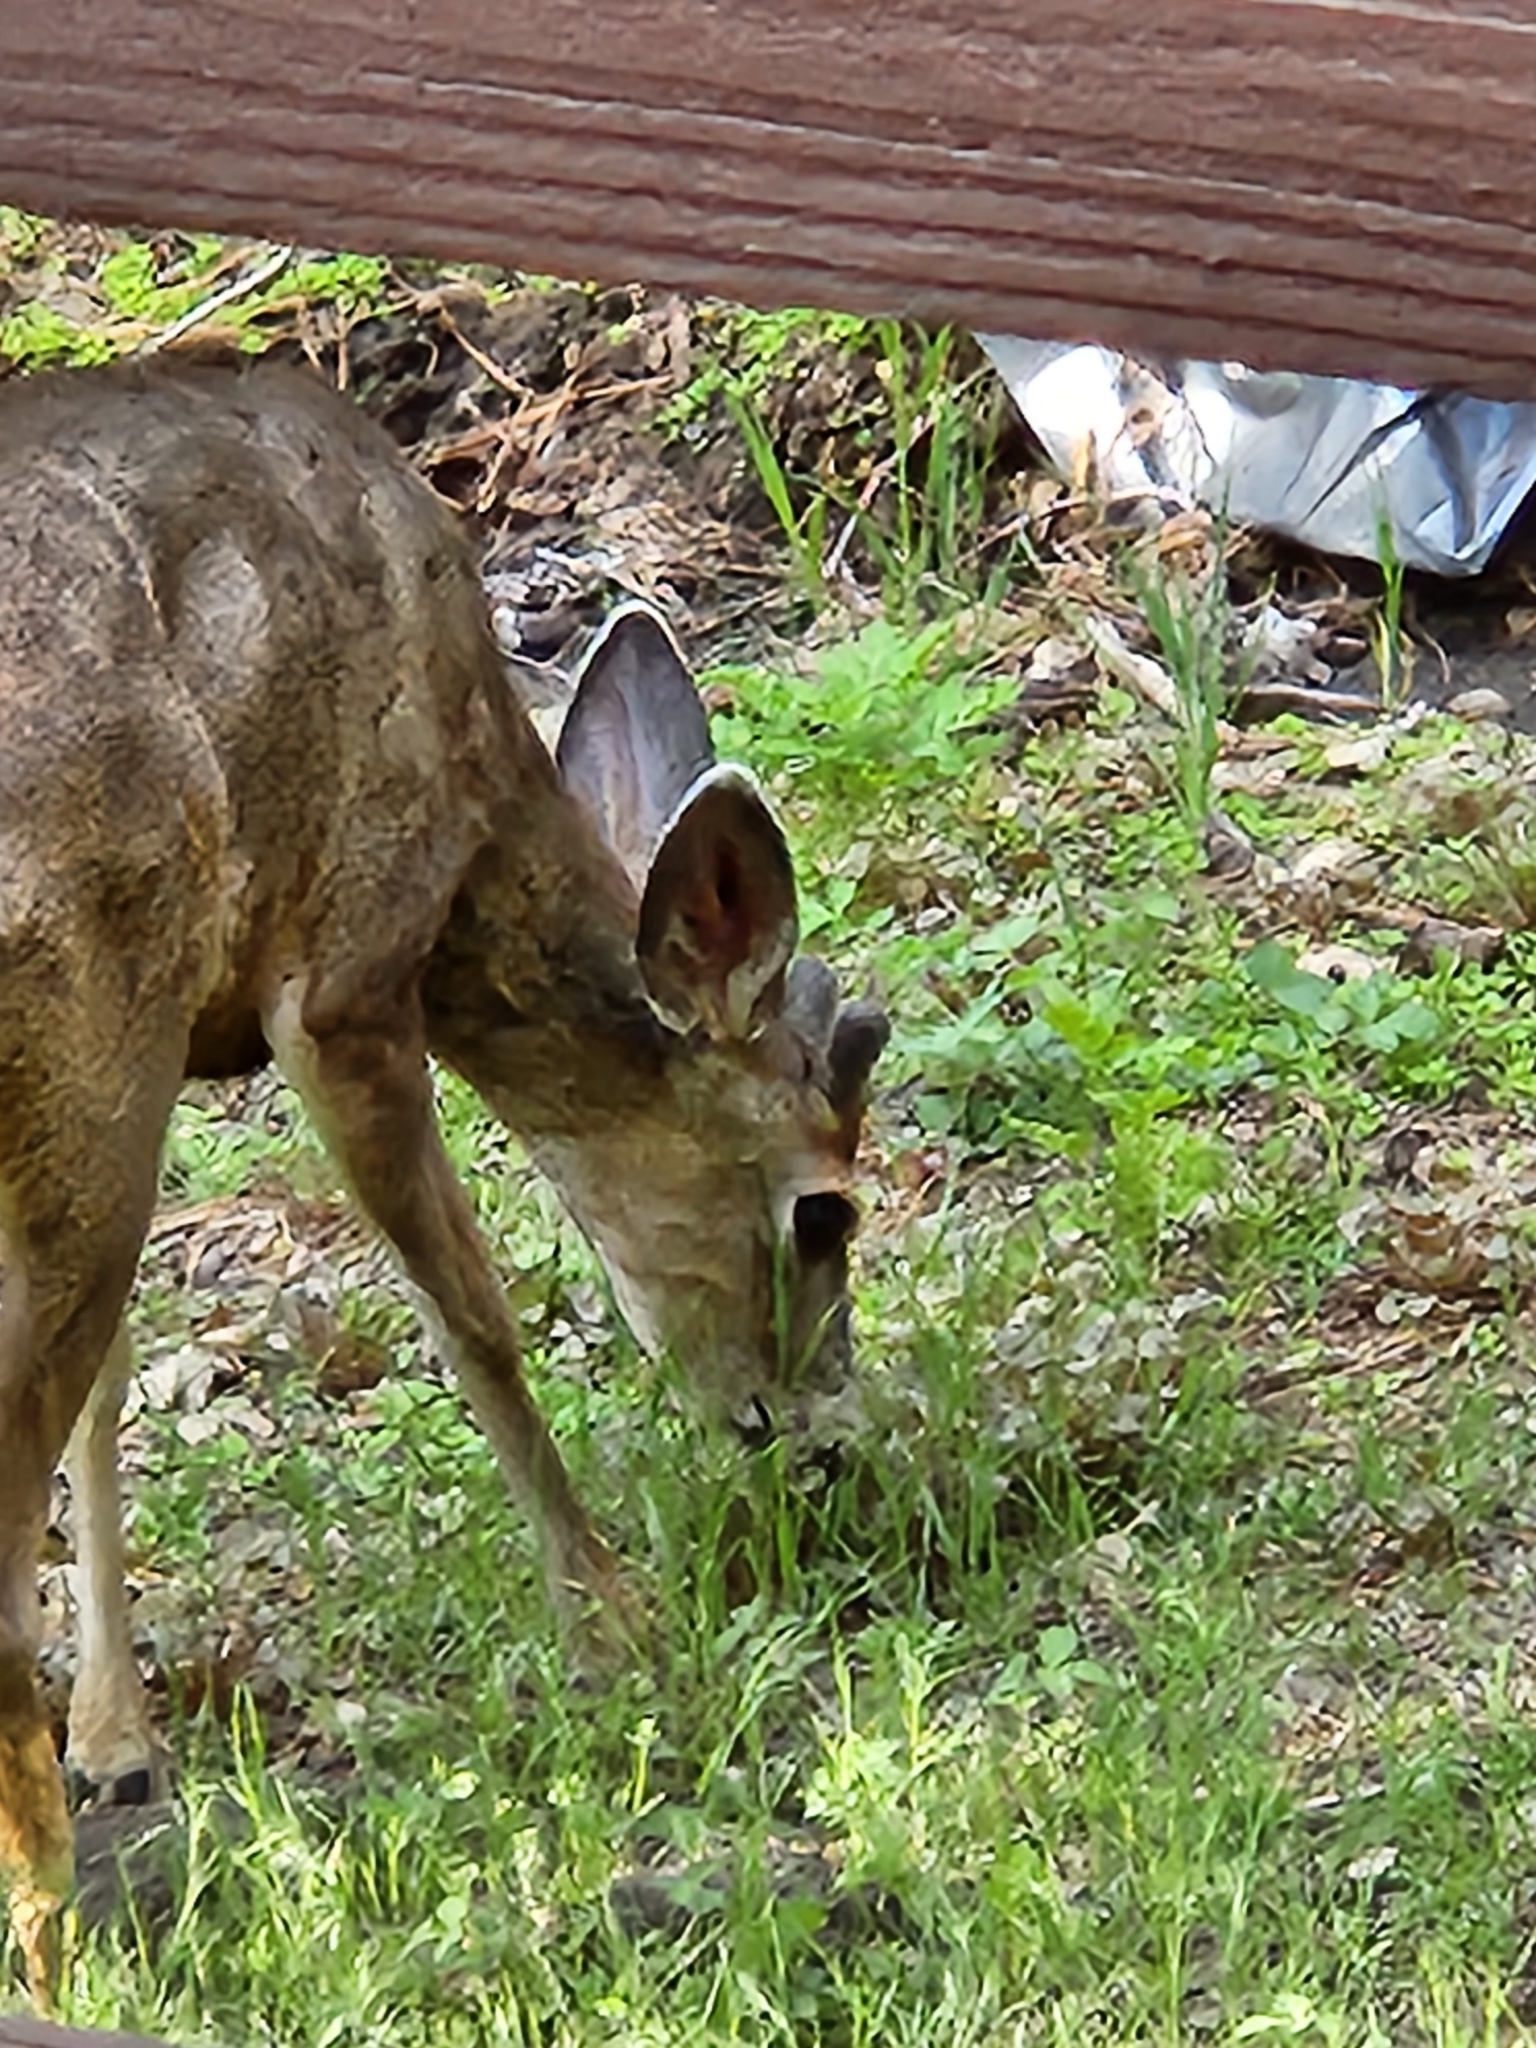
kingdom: Animalia
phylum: Chordata
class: Mammalia
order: Artiodactyla
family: Cervidae
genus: Odocoileus
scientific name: Odocoileus hemionus
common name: Mule deer
